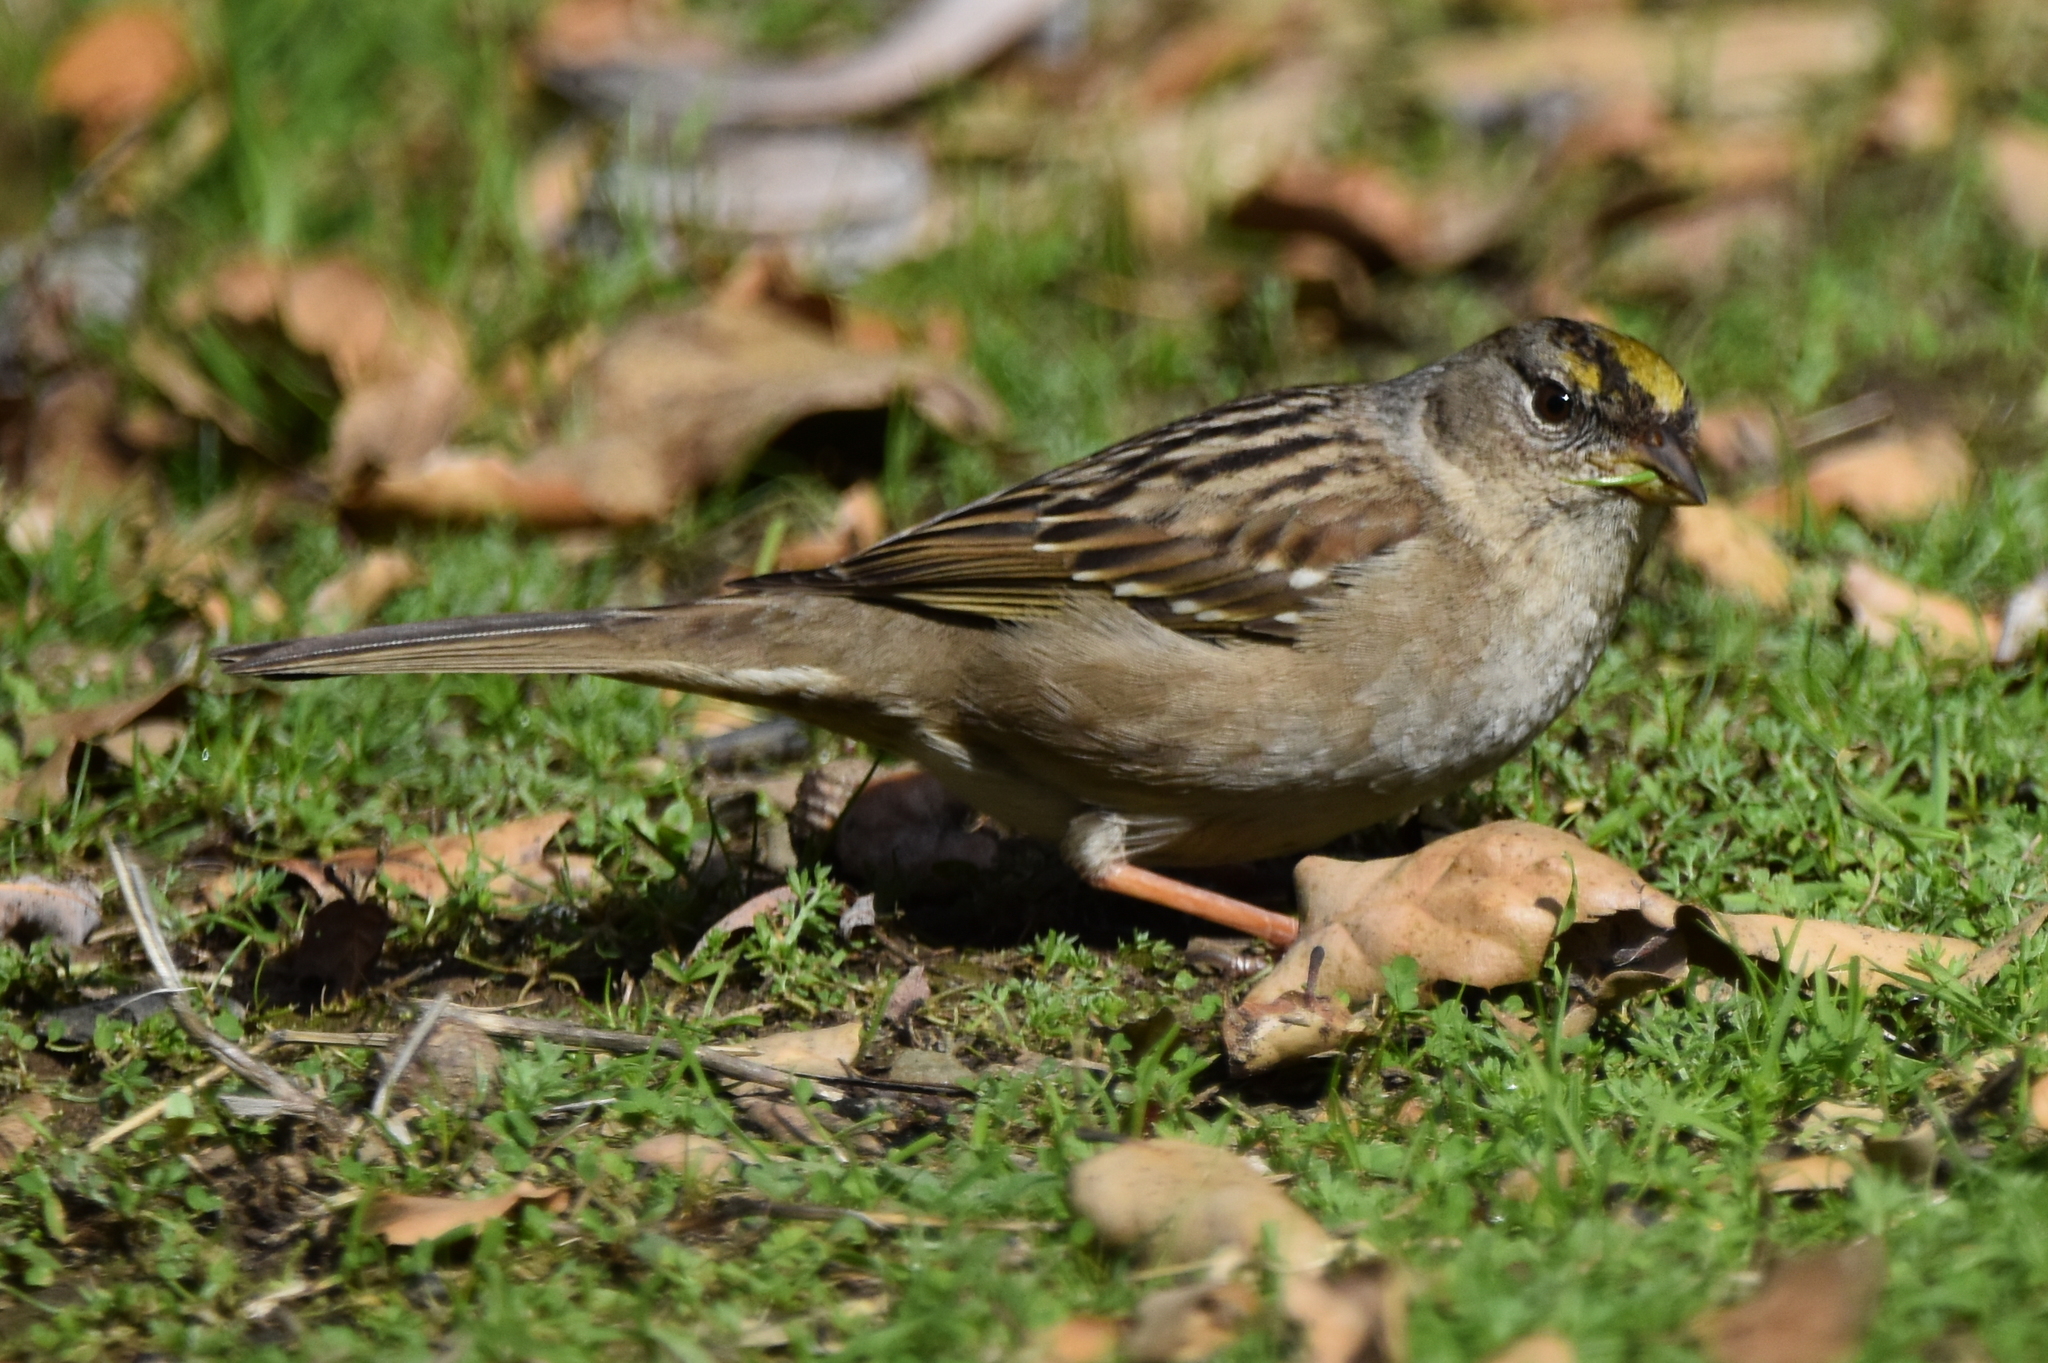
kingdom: Animalia
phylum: Chordata
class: Aves
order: Passeriformes
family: Passerellidae
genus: Zonotrichia
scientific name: Zonotrichia atricapilla
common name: Golden-crowned sparrow
